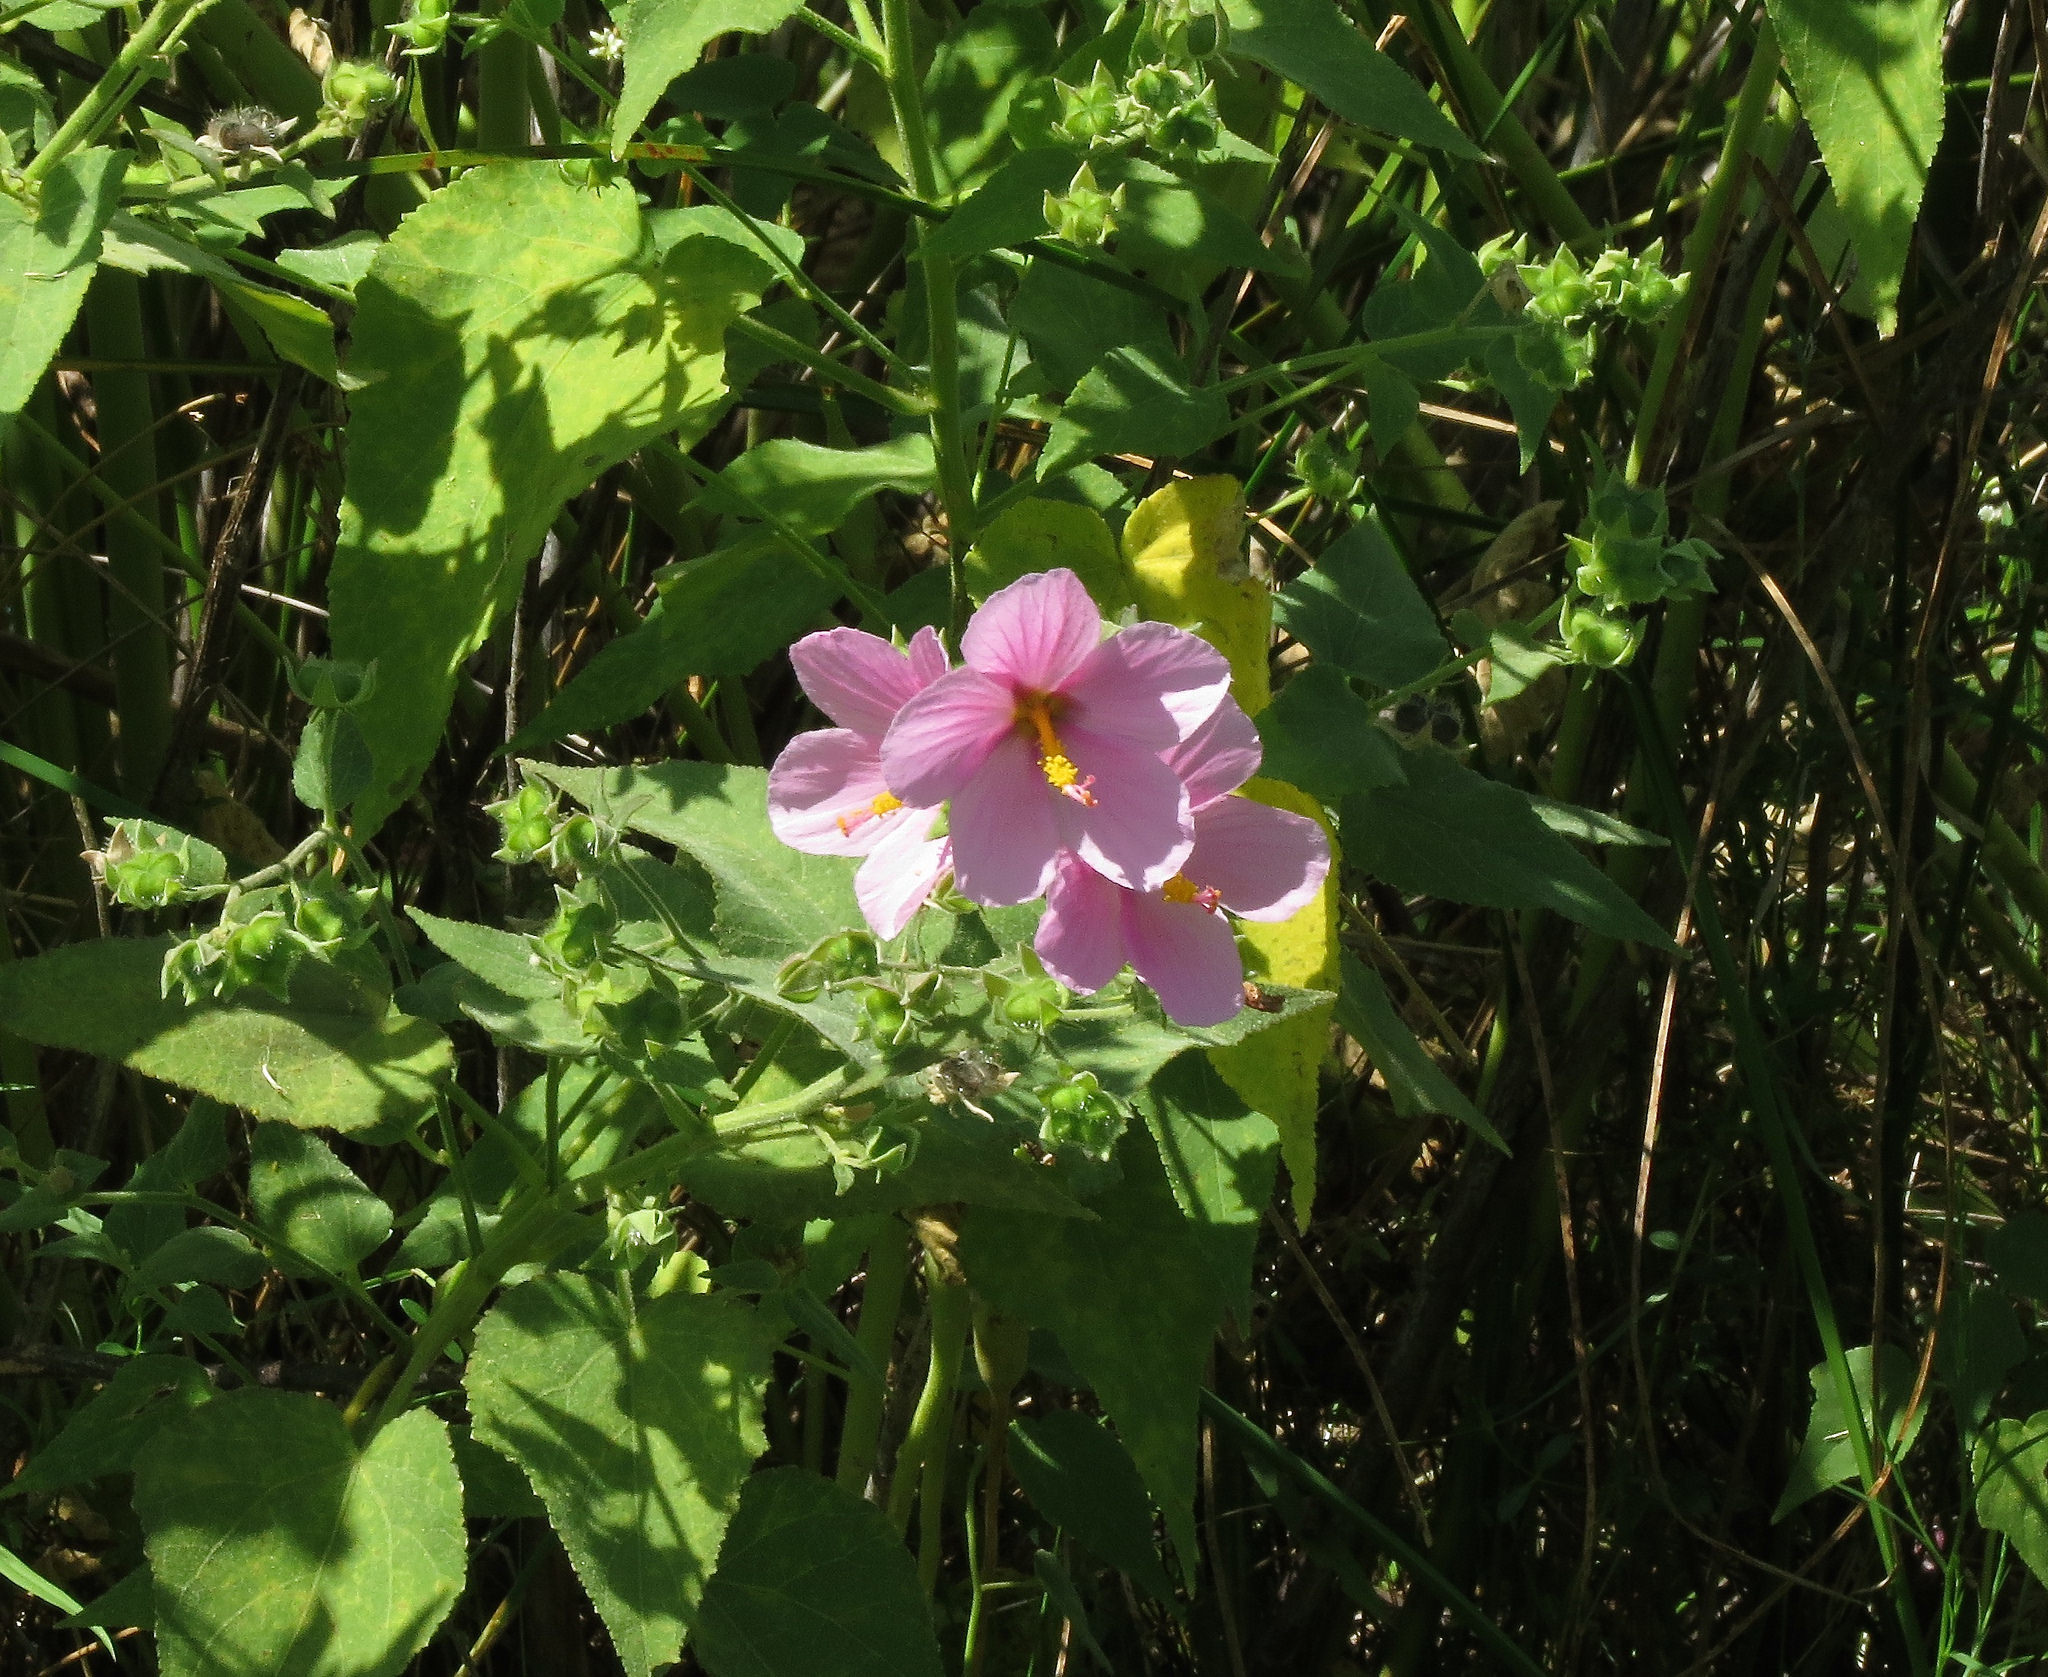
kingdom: Plantae
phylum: Tracheophyta
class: Magnoliopsida
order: Malvales
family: Malvaceae
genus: Kosteletzkya
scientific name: Kosteletzkya pentacarpos
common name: Virginia saltmarsh mallow
